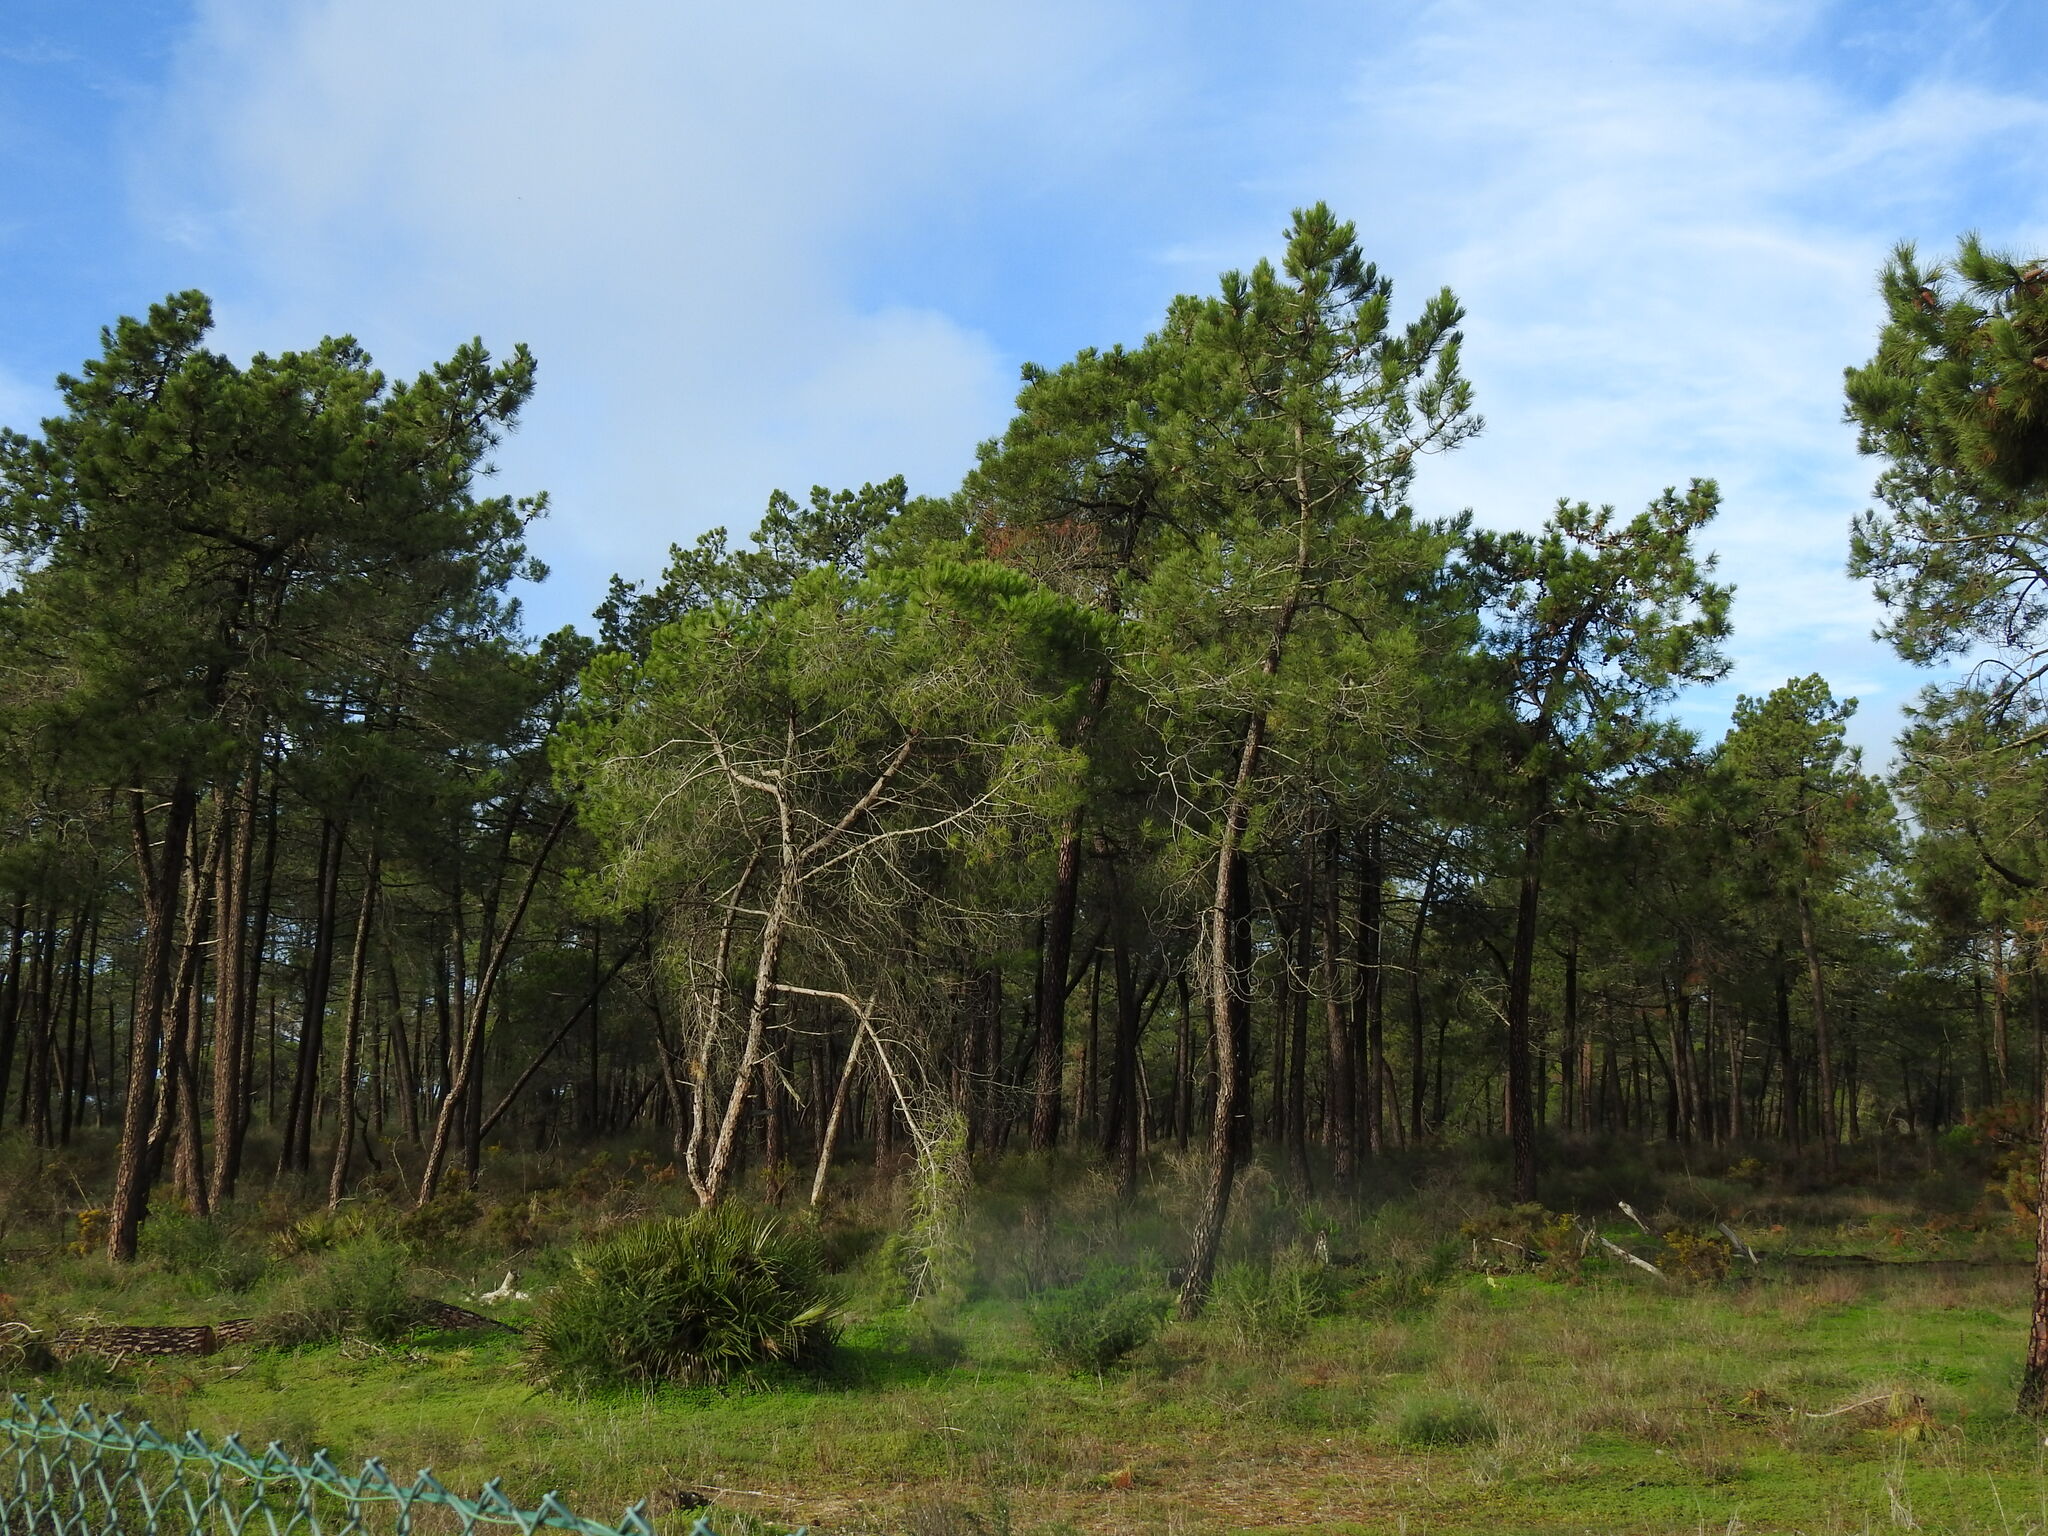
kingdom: Plantae
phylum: Tracheophyta
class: Pinopsida
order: Pinales
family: Pinaceae
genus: Pinus
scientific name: Pinus pinaster
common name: Maritime pine
